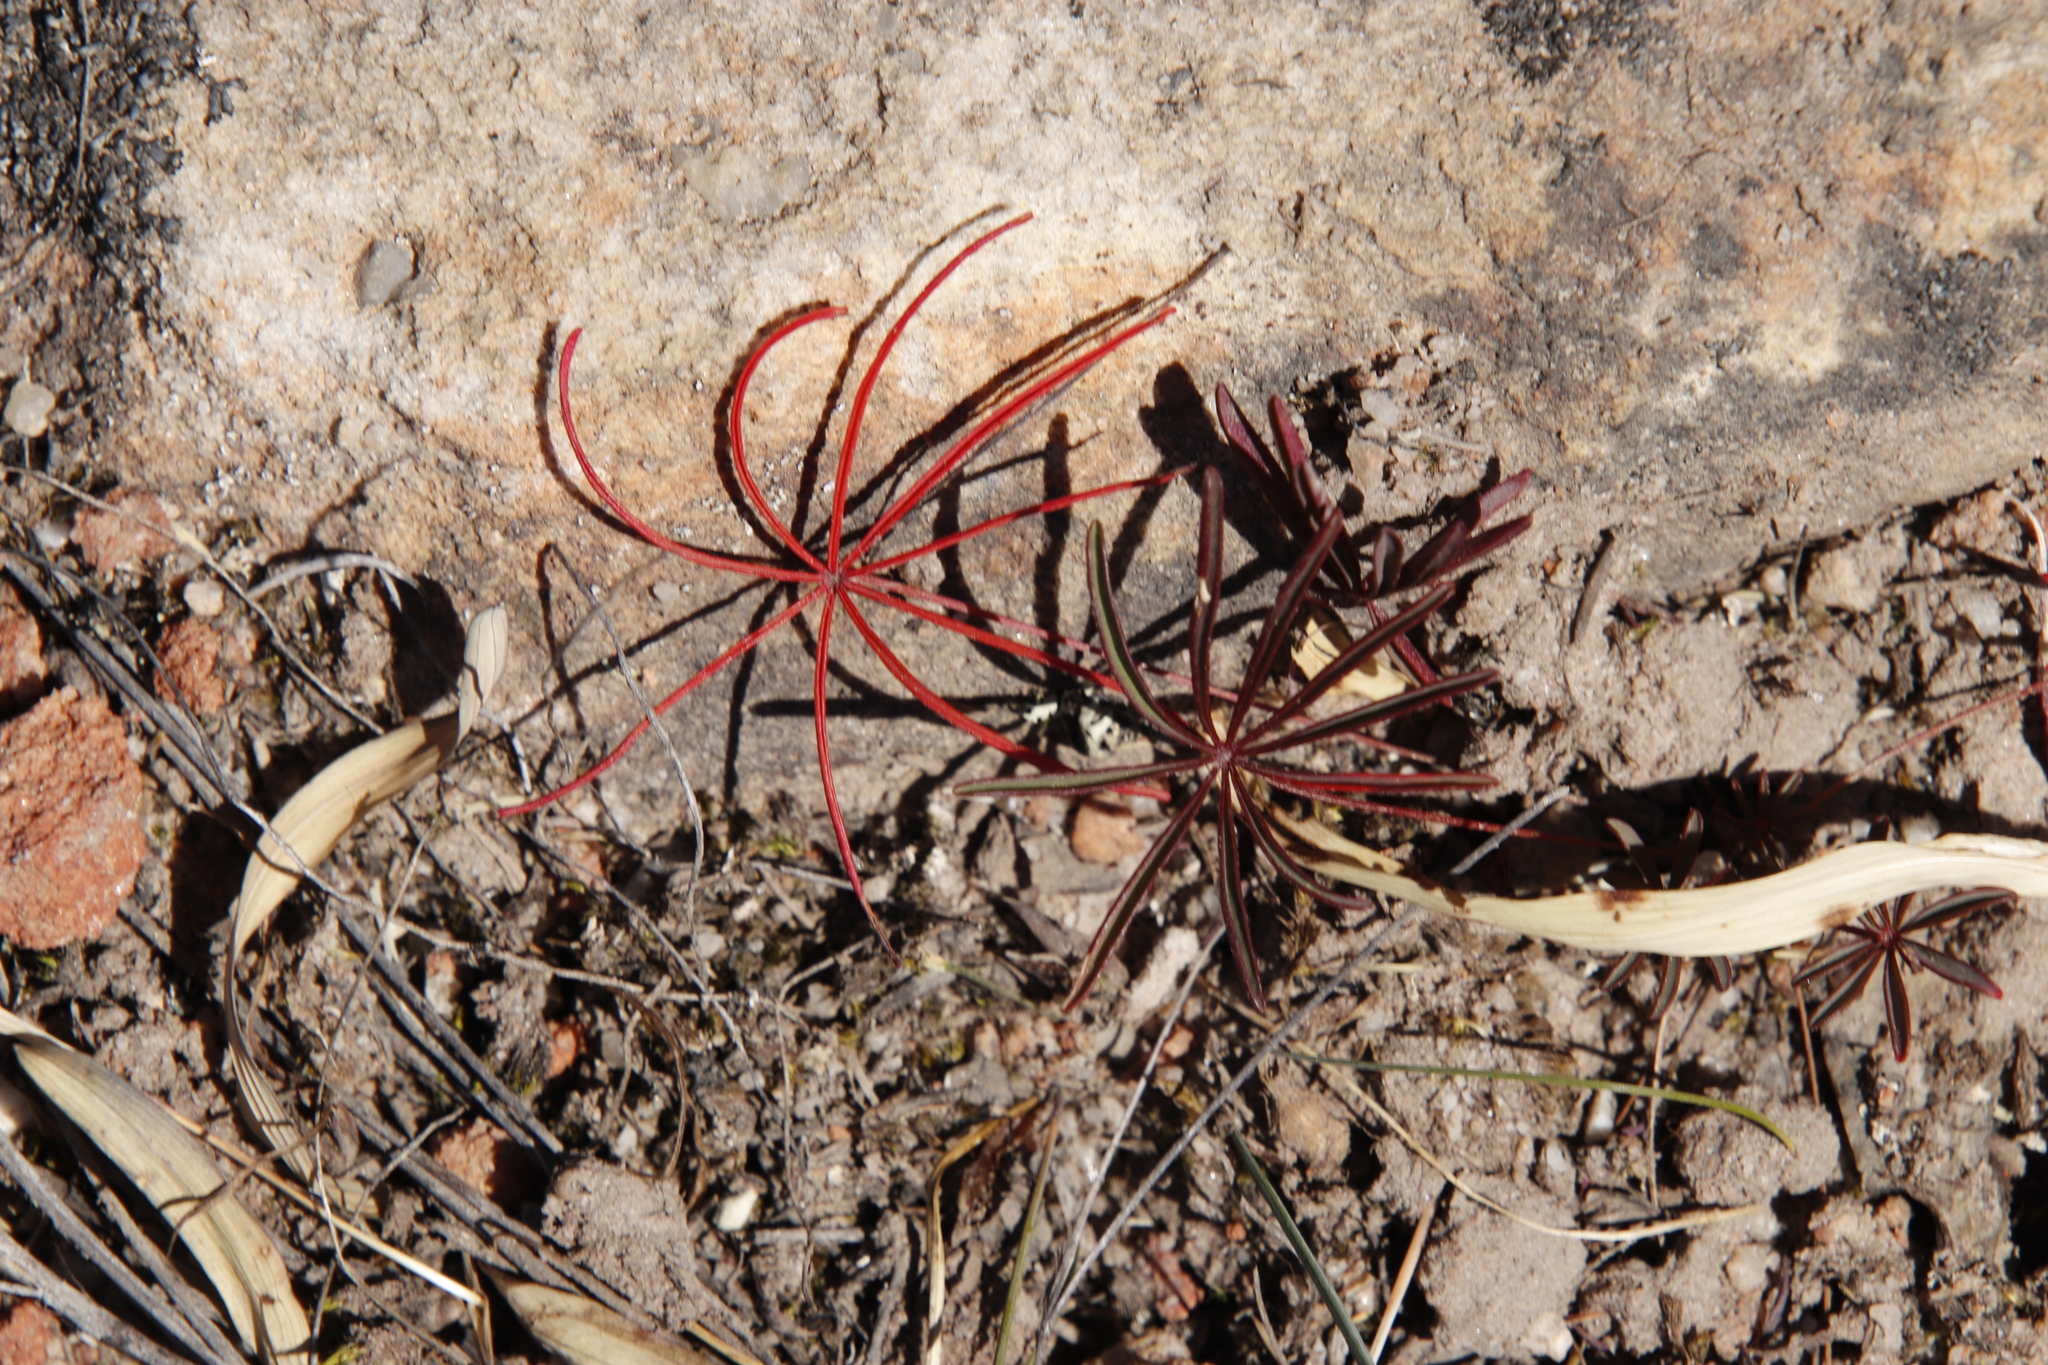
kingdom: Plantae
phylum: Tracheophyta
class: Magnoliopsida
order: Oxalidales
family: Oxalidaceae
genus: Oxalis
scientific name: Oxalis saltusbelli
